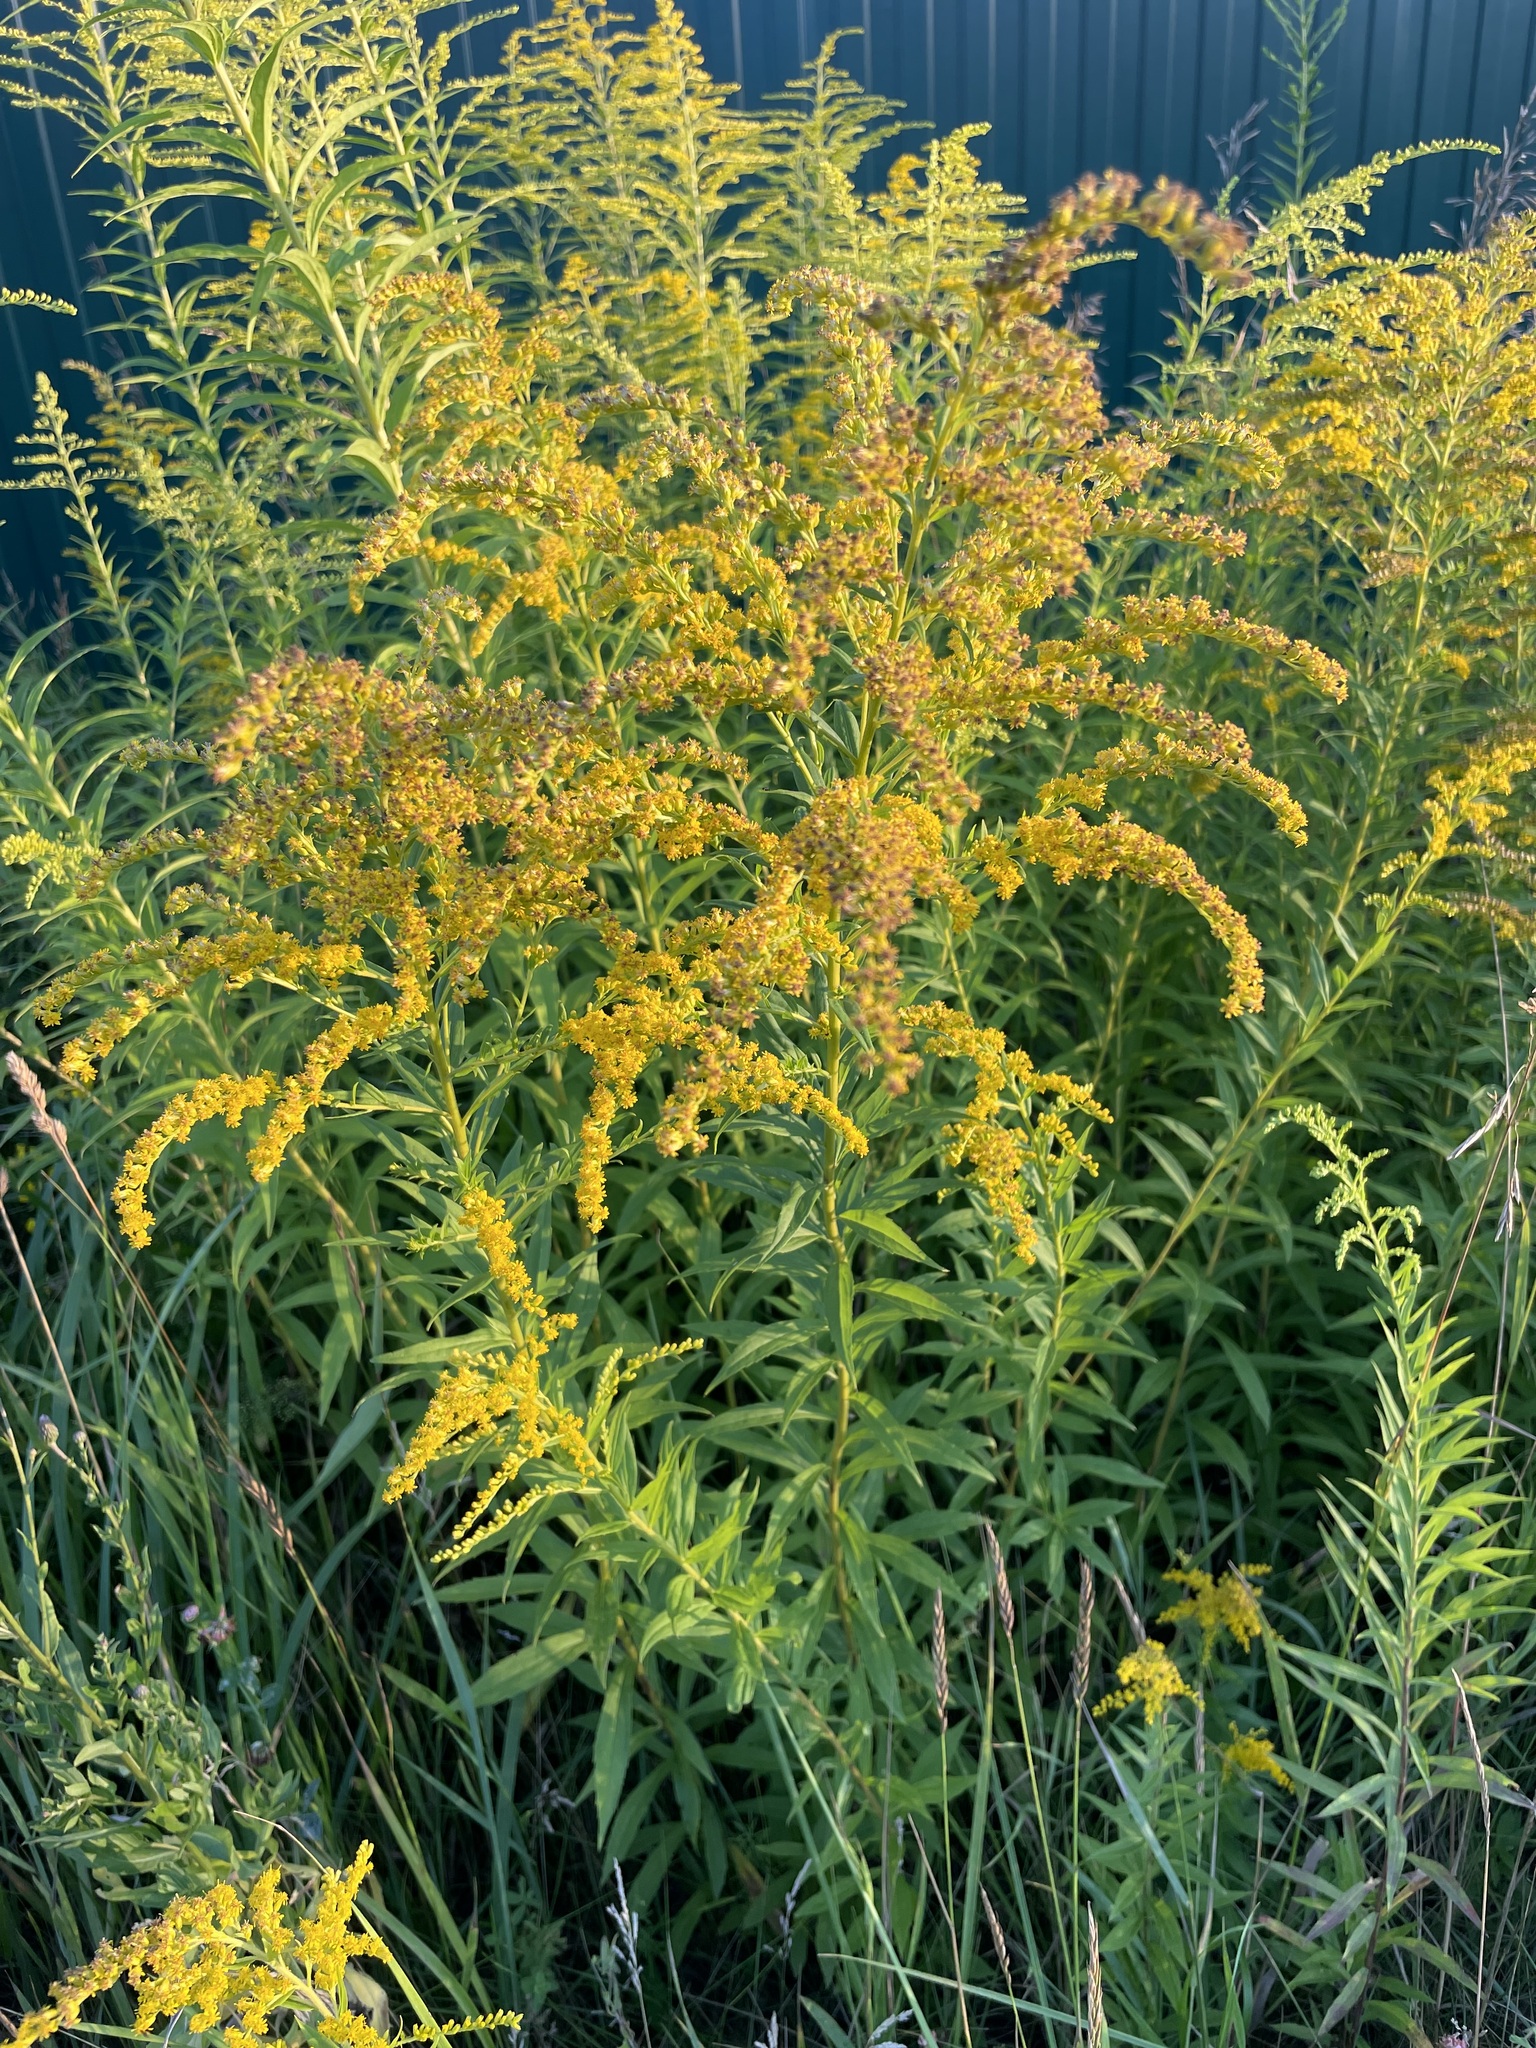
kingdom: Plantae
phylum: Tracheophyta
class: Magnoliopsida
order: Asterales
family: Asteraceae
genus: Solidago
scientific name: Solidago canadensis
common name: Canada goldenrod
